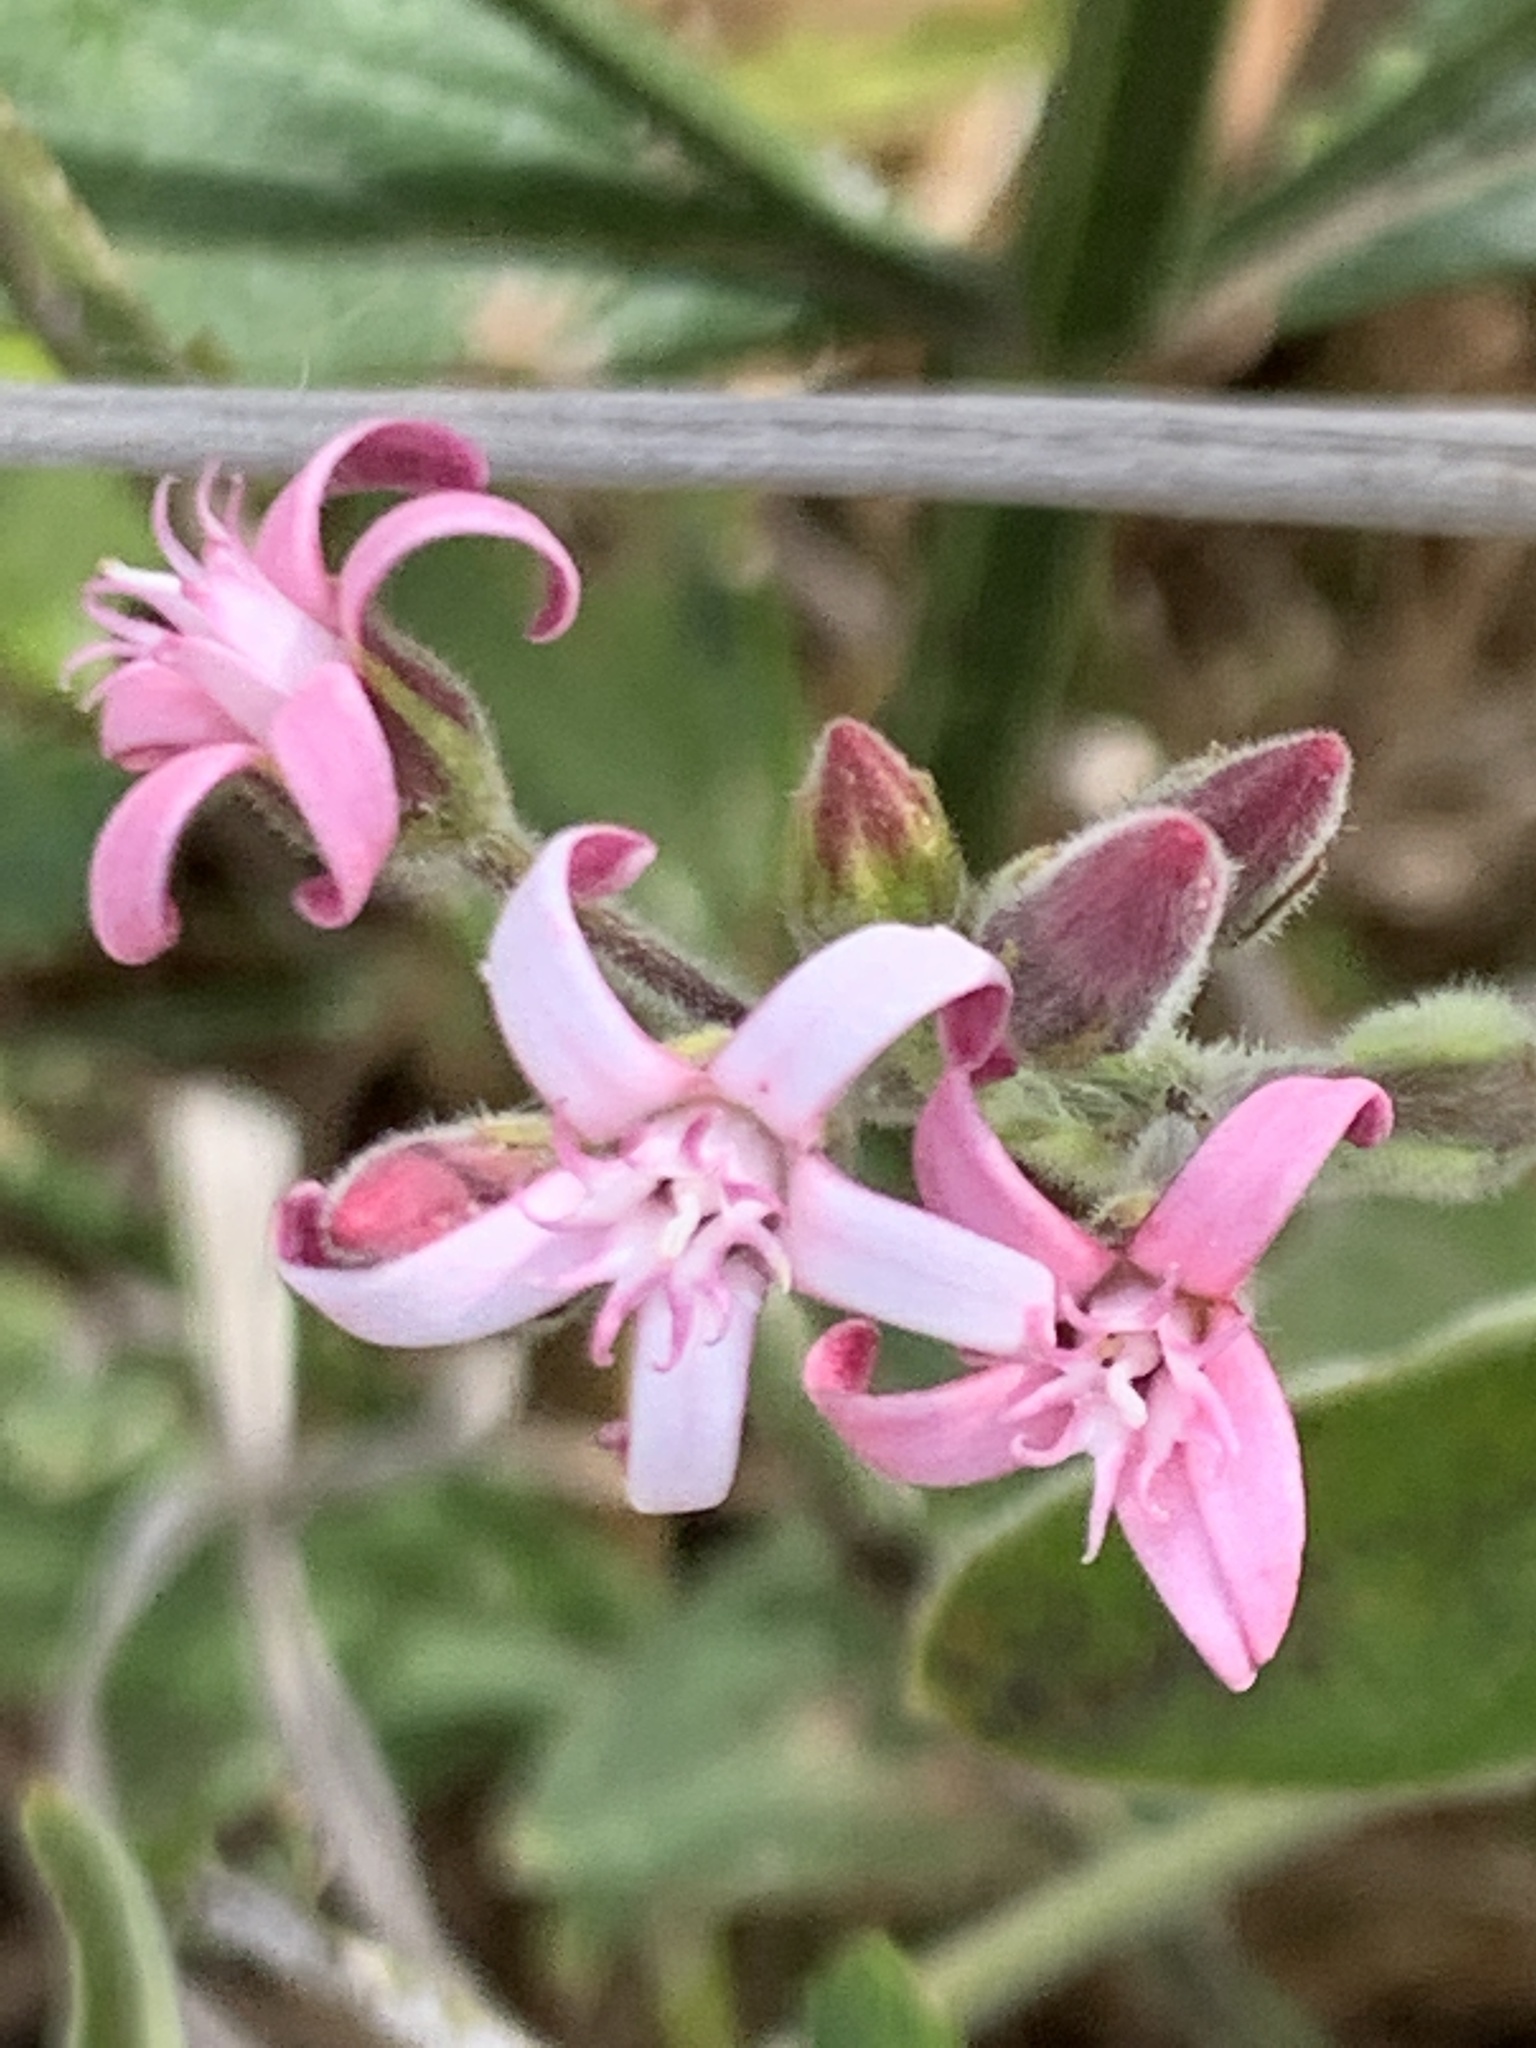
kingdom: Plantae
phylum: Tracheophyta
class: Magnoliopsida
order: Gentianales
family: Apocynaceae
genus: Oxypetalum
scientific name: Oxypetalum solanoides
